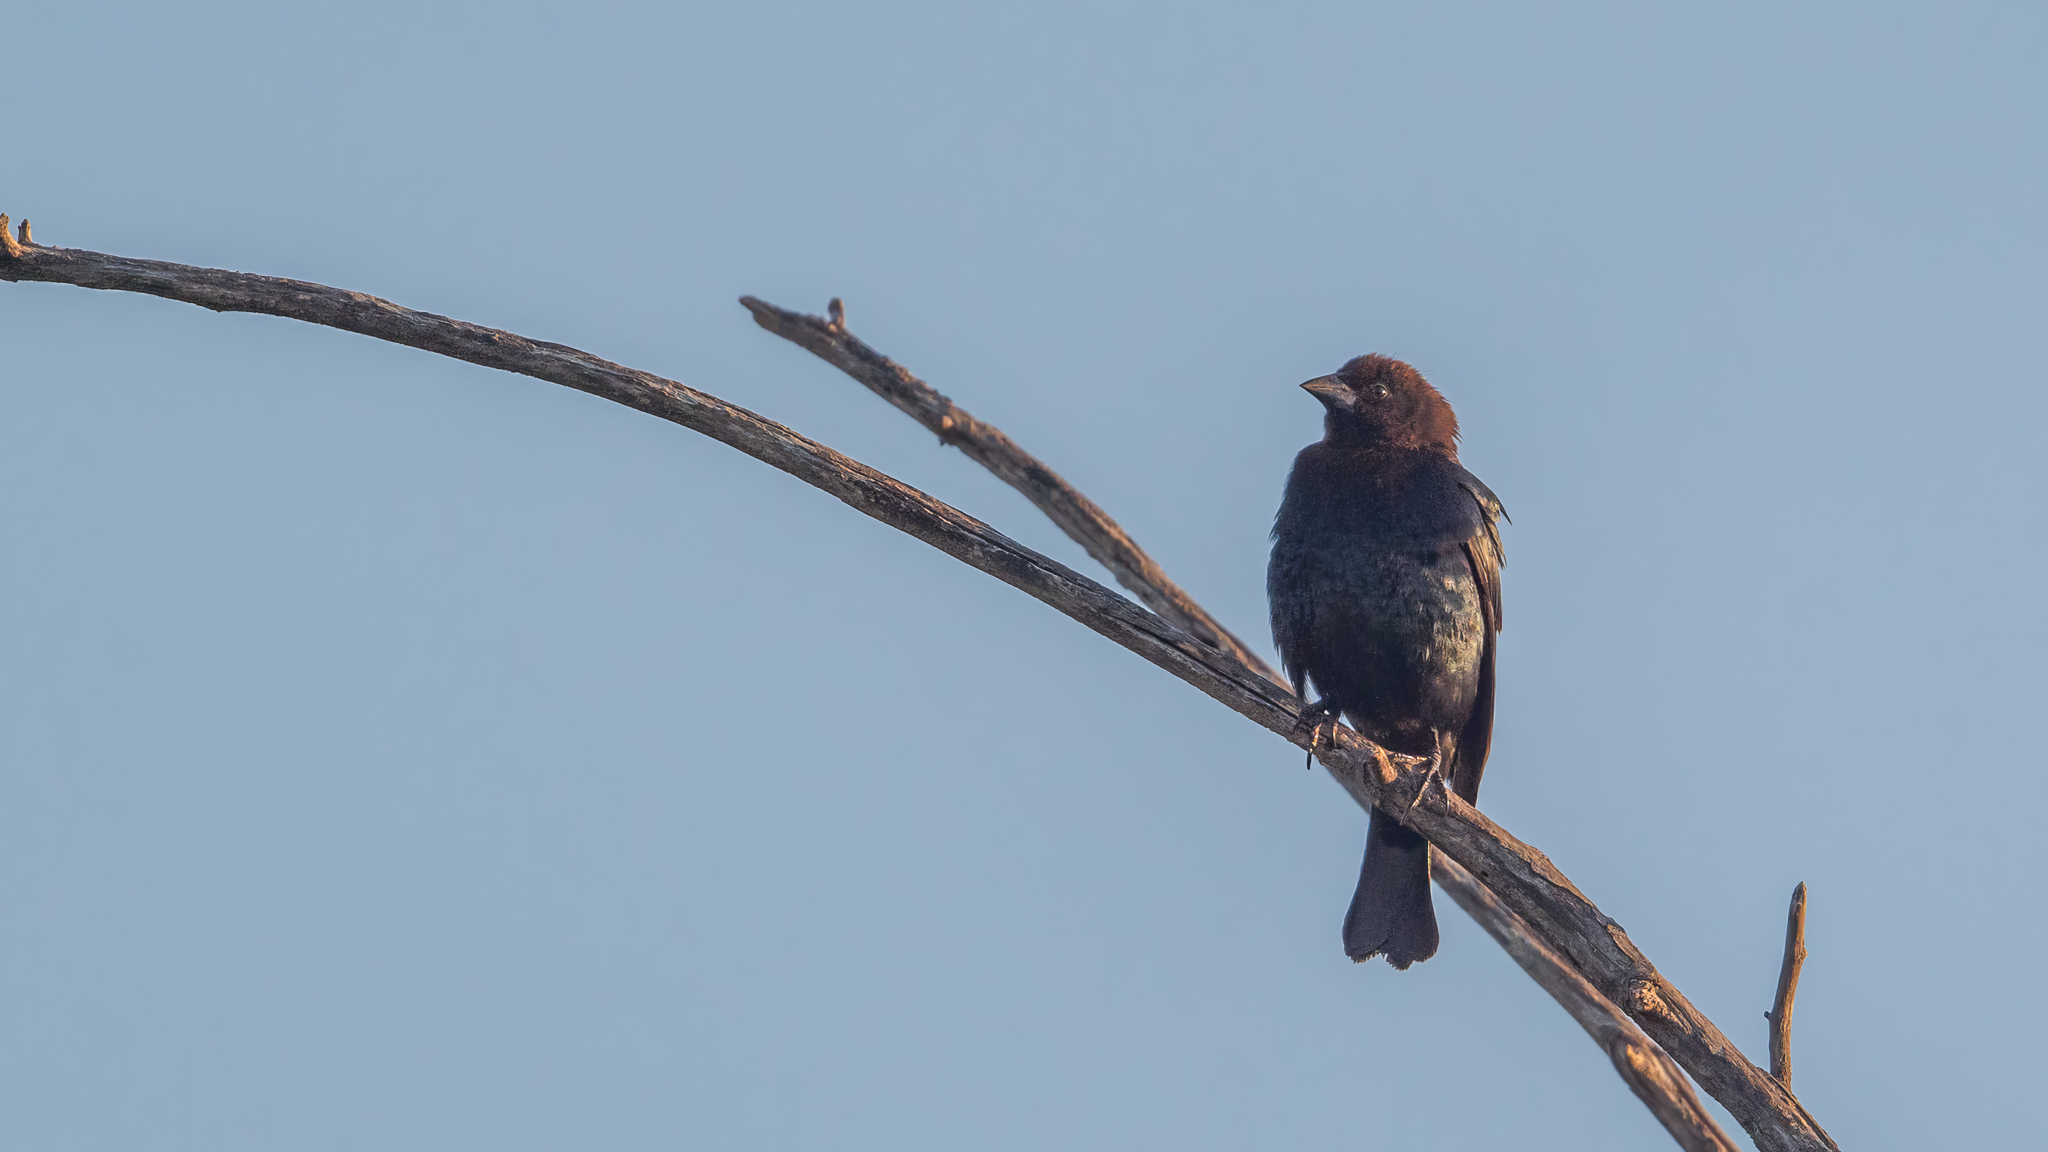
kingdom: Animalia
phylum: Chordata
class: Aves
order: Passeriformes
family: Icteridae
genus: Molothrus
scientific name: Molothrus ater
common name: Brown-headed cowbird
